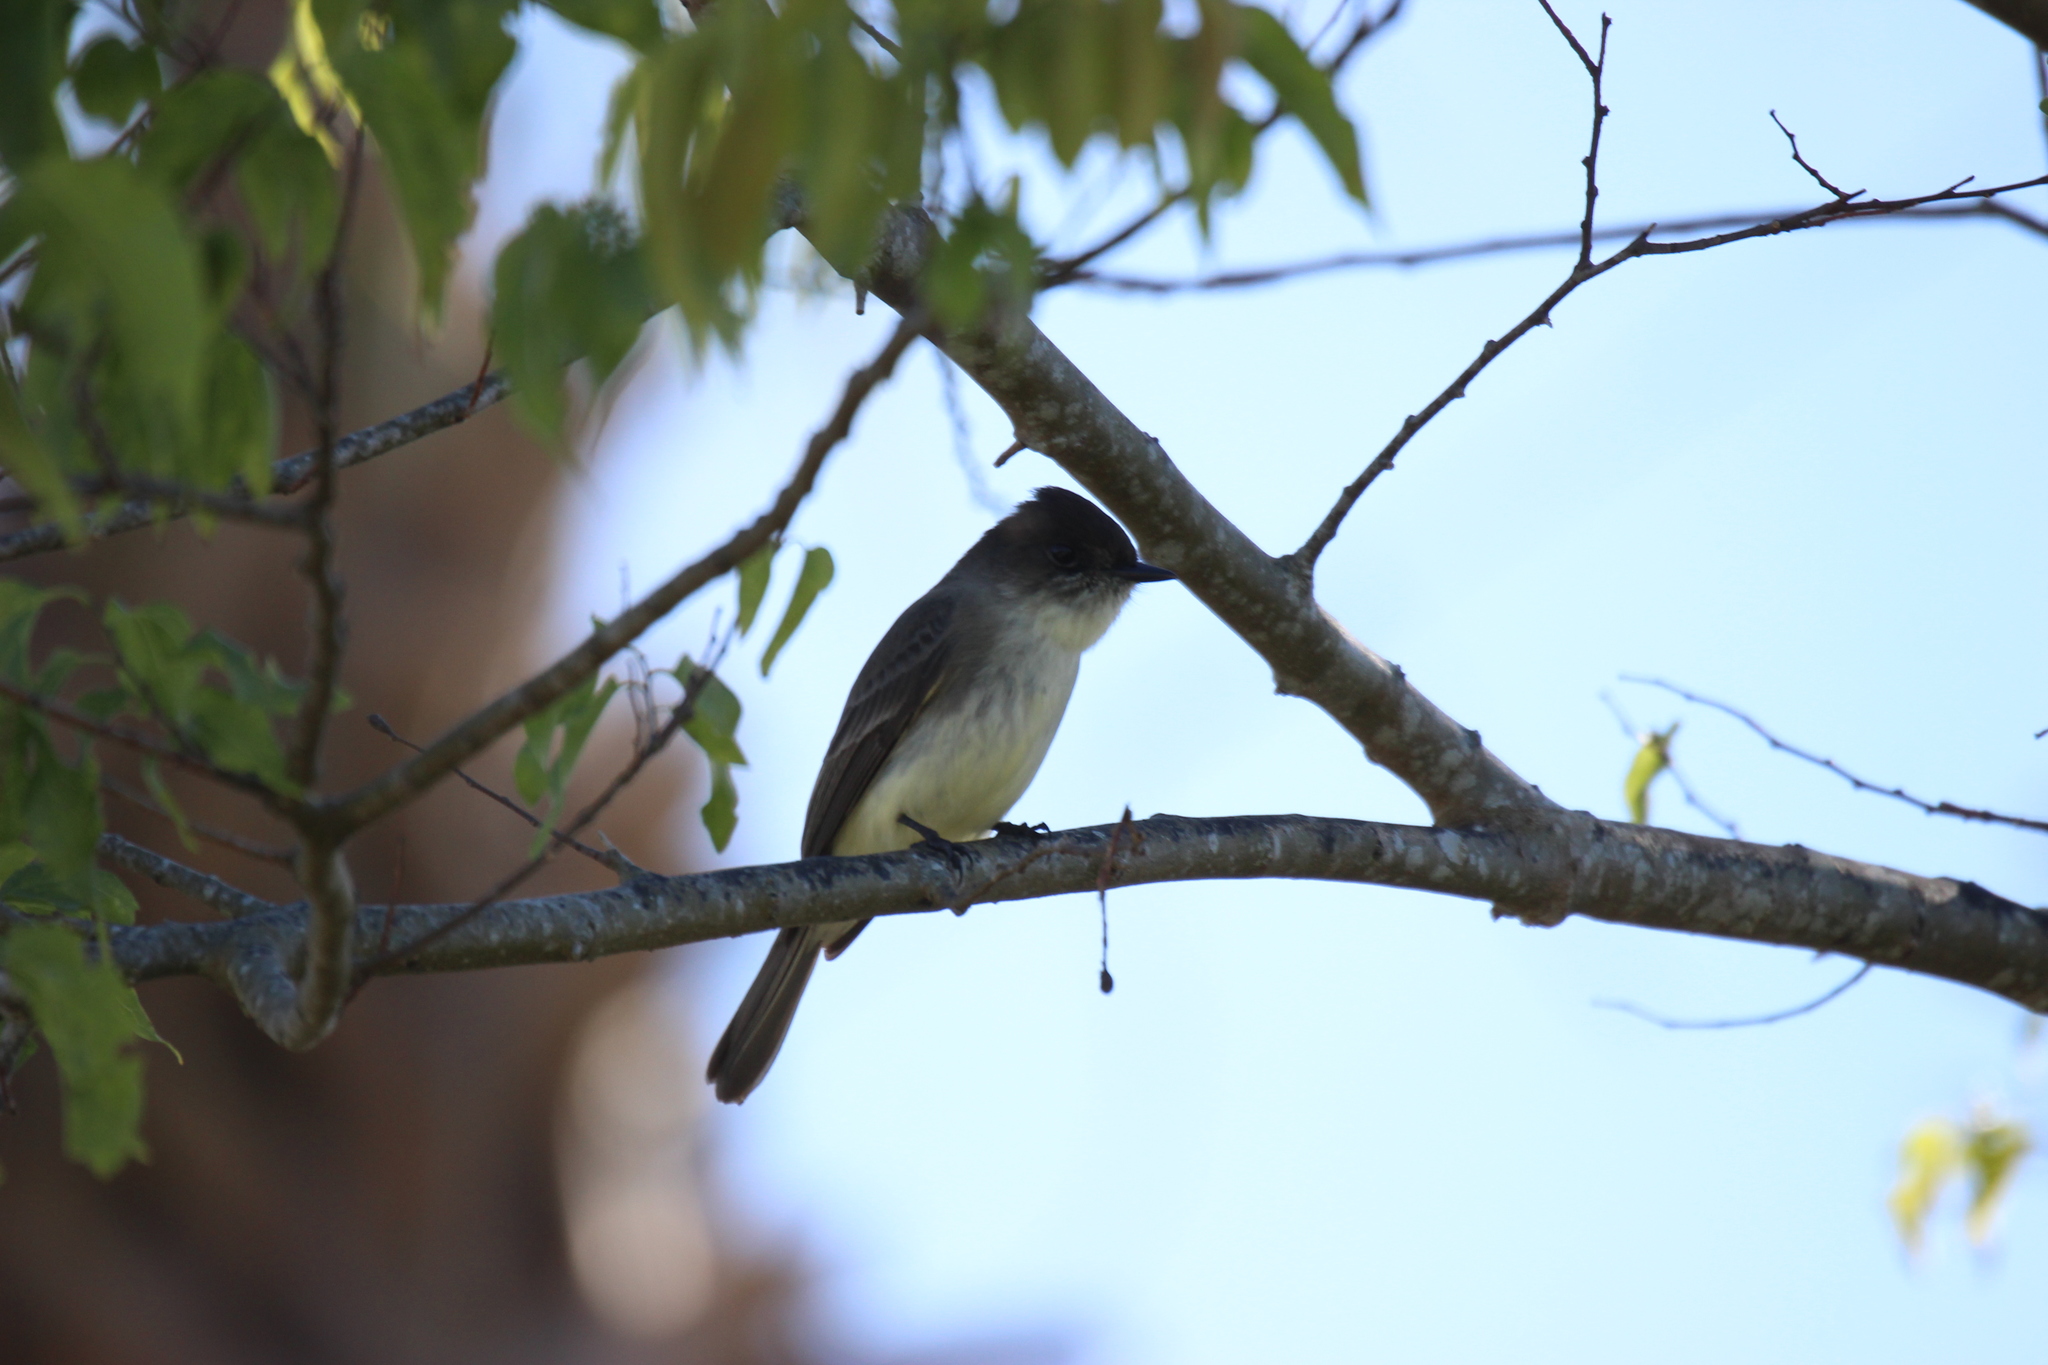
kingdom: Animalia
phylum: Chordata
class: Aves
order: Passeriformes
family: Tyrannidae
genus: Sayornis
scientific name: Sayornis phoebe
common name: Eastern phoebe
